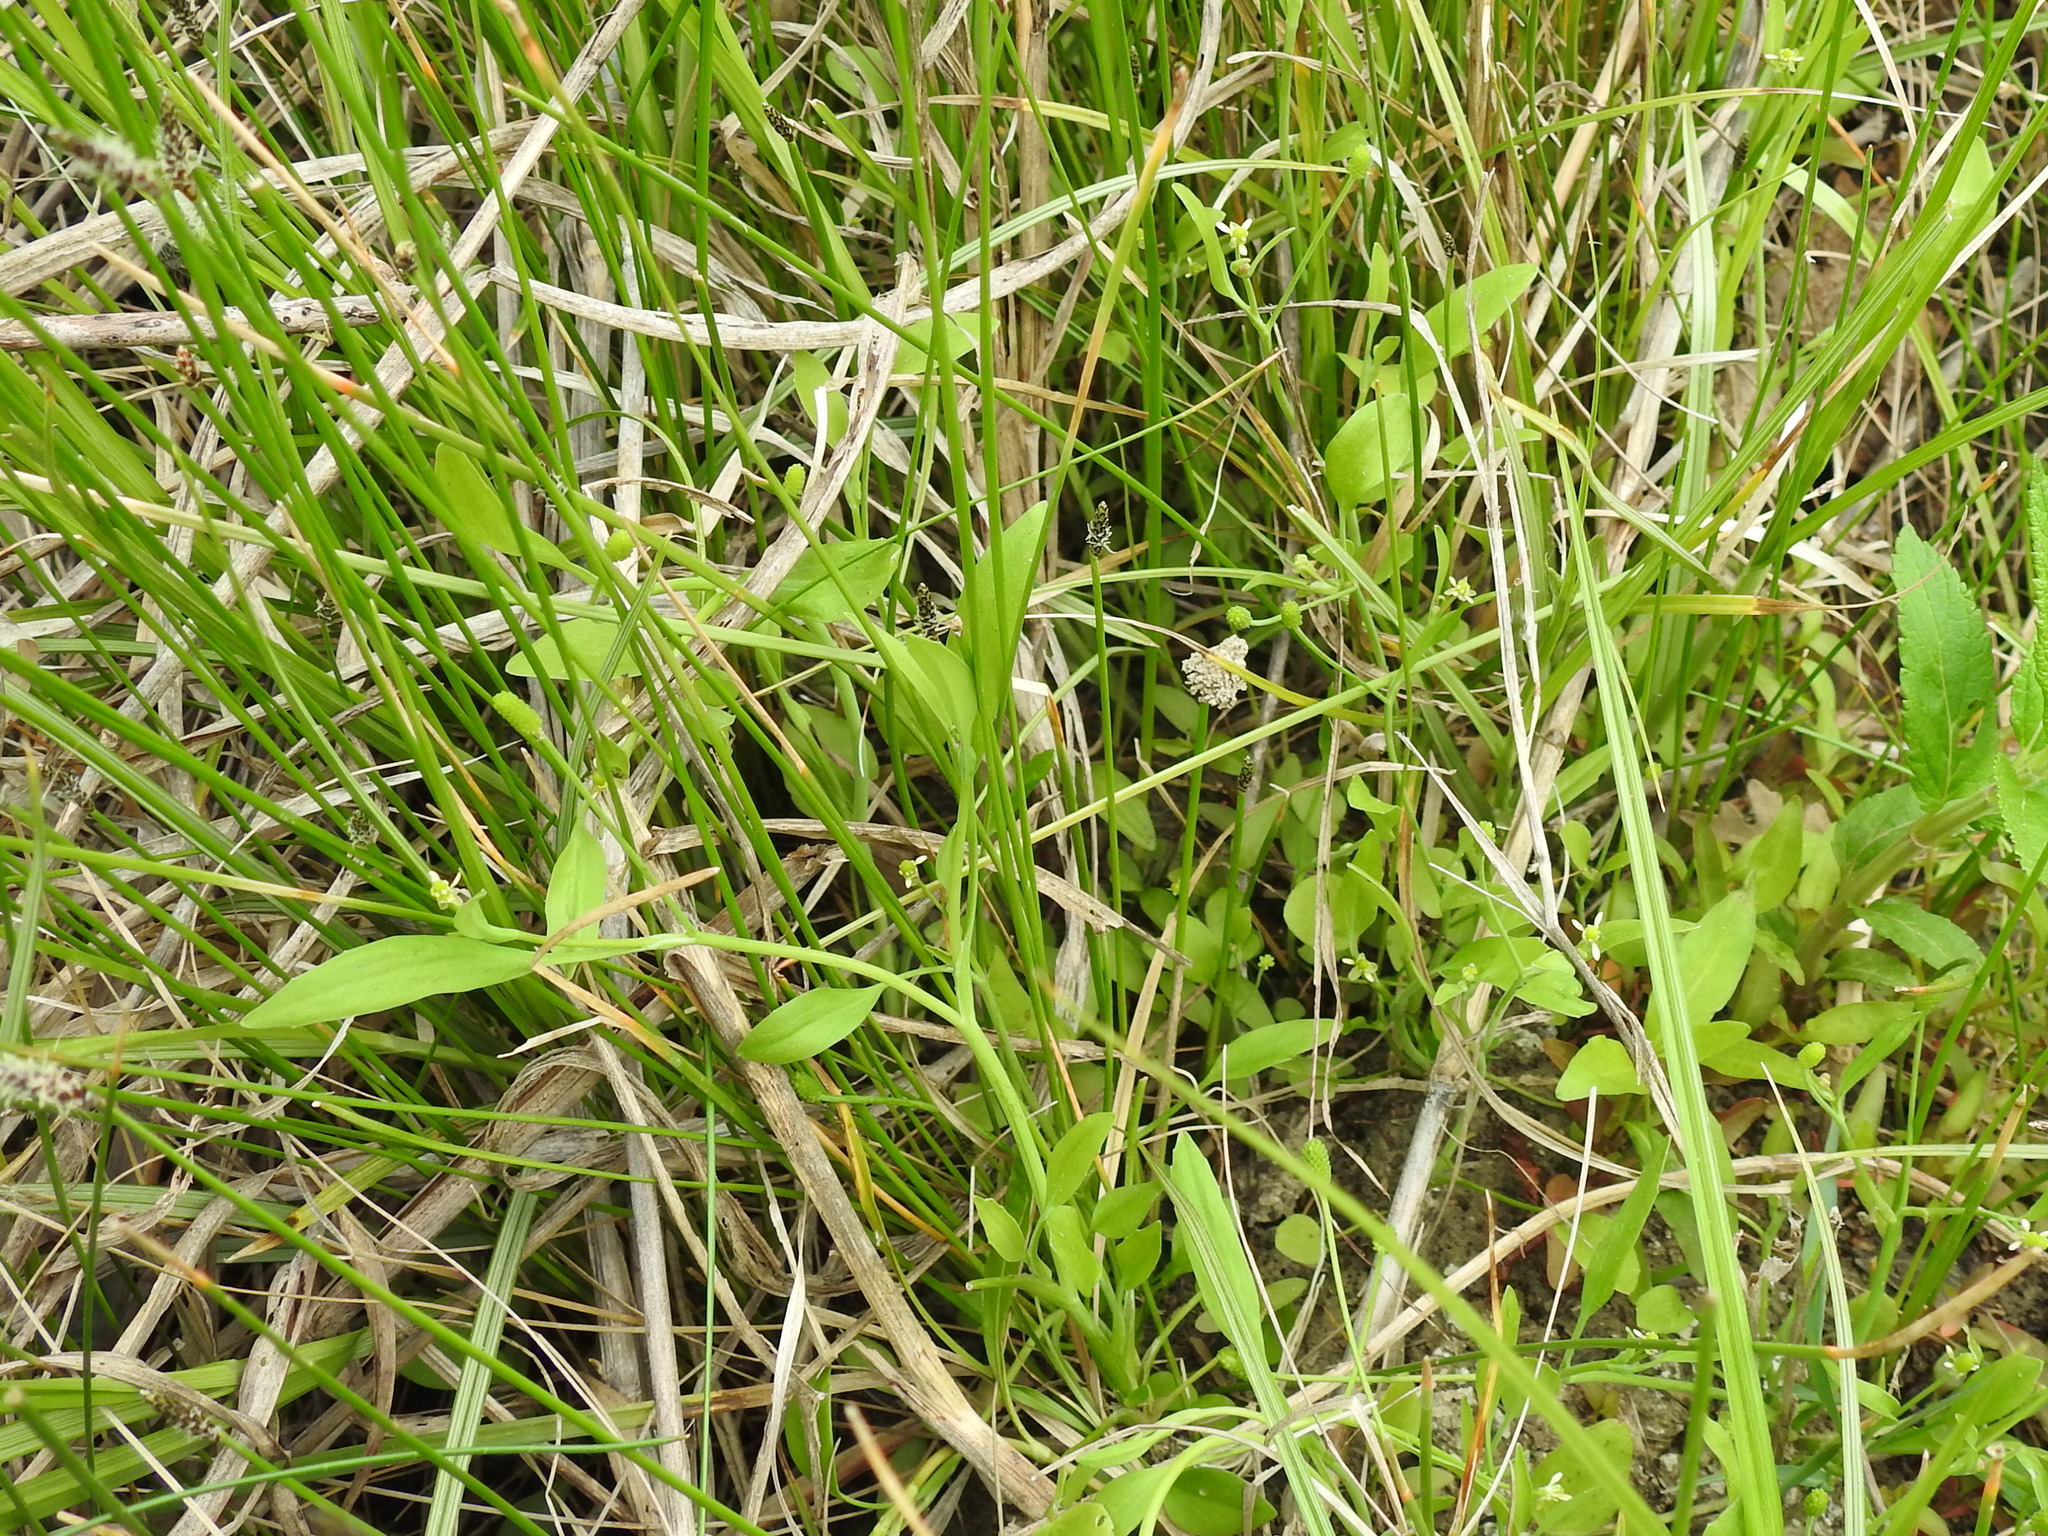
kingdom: Plantae
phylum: Tracheophyta
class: Magnoliopsida
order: Ranunculales
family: Ranunculaceae
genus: Ranunculus
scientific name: Ranunculus pusillus
